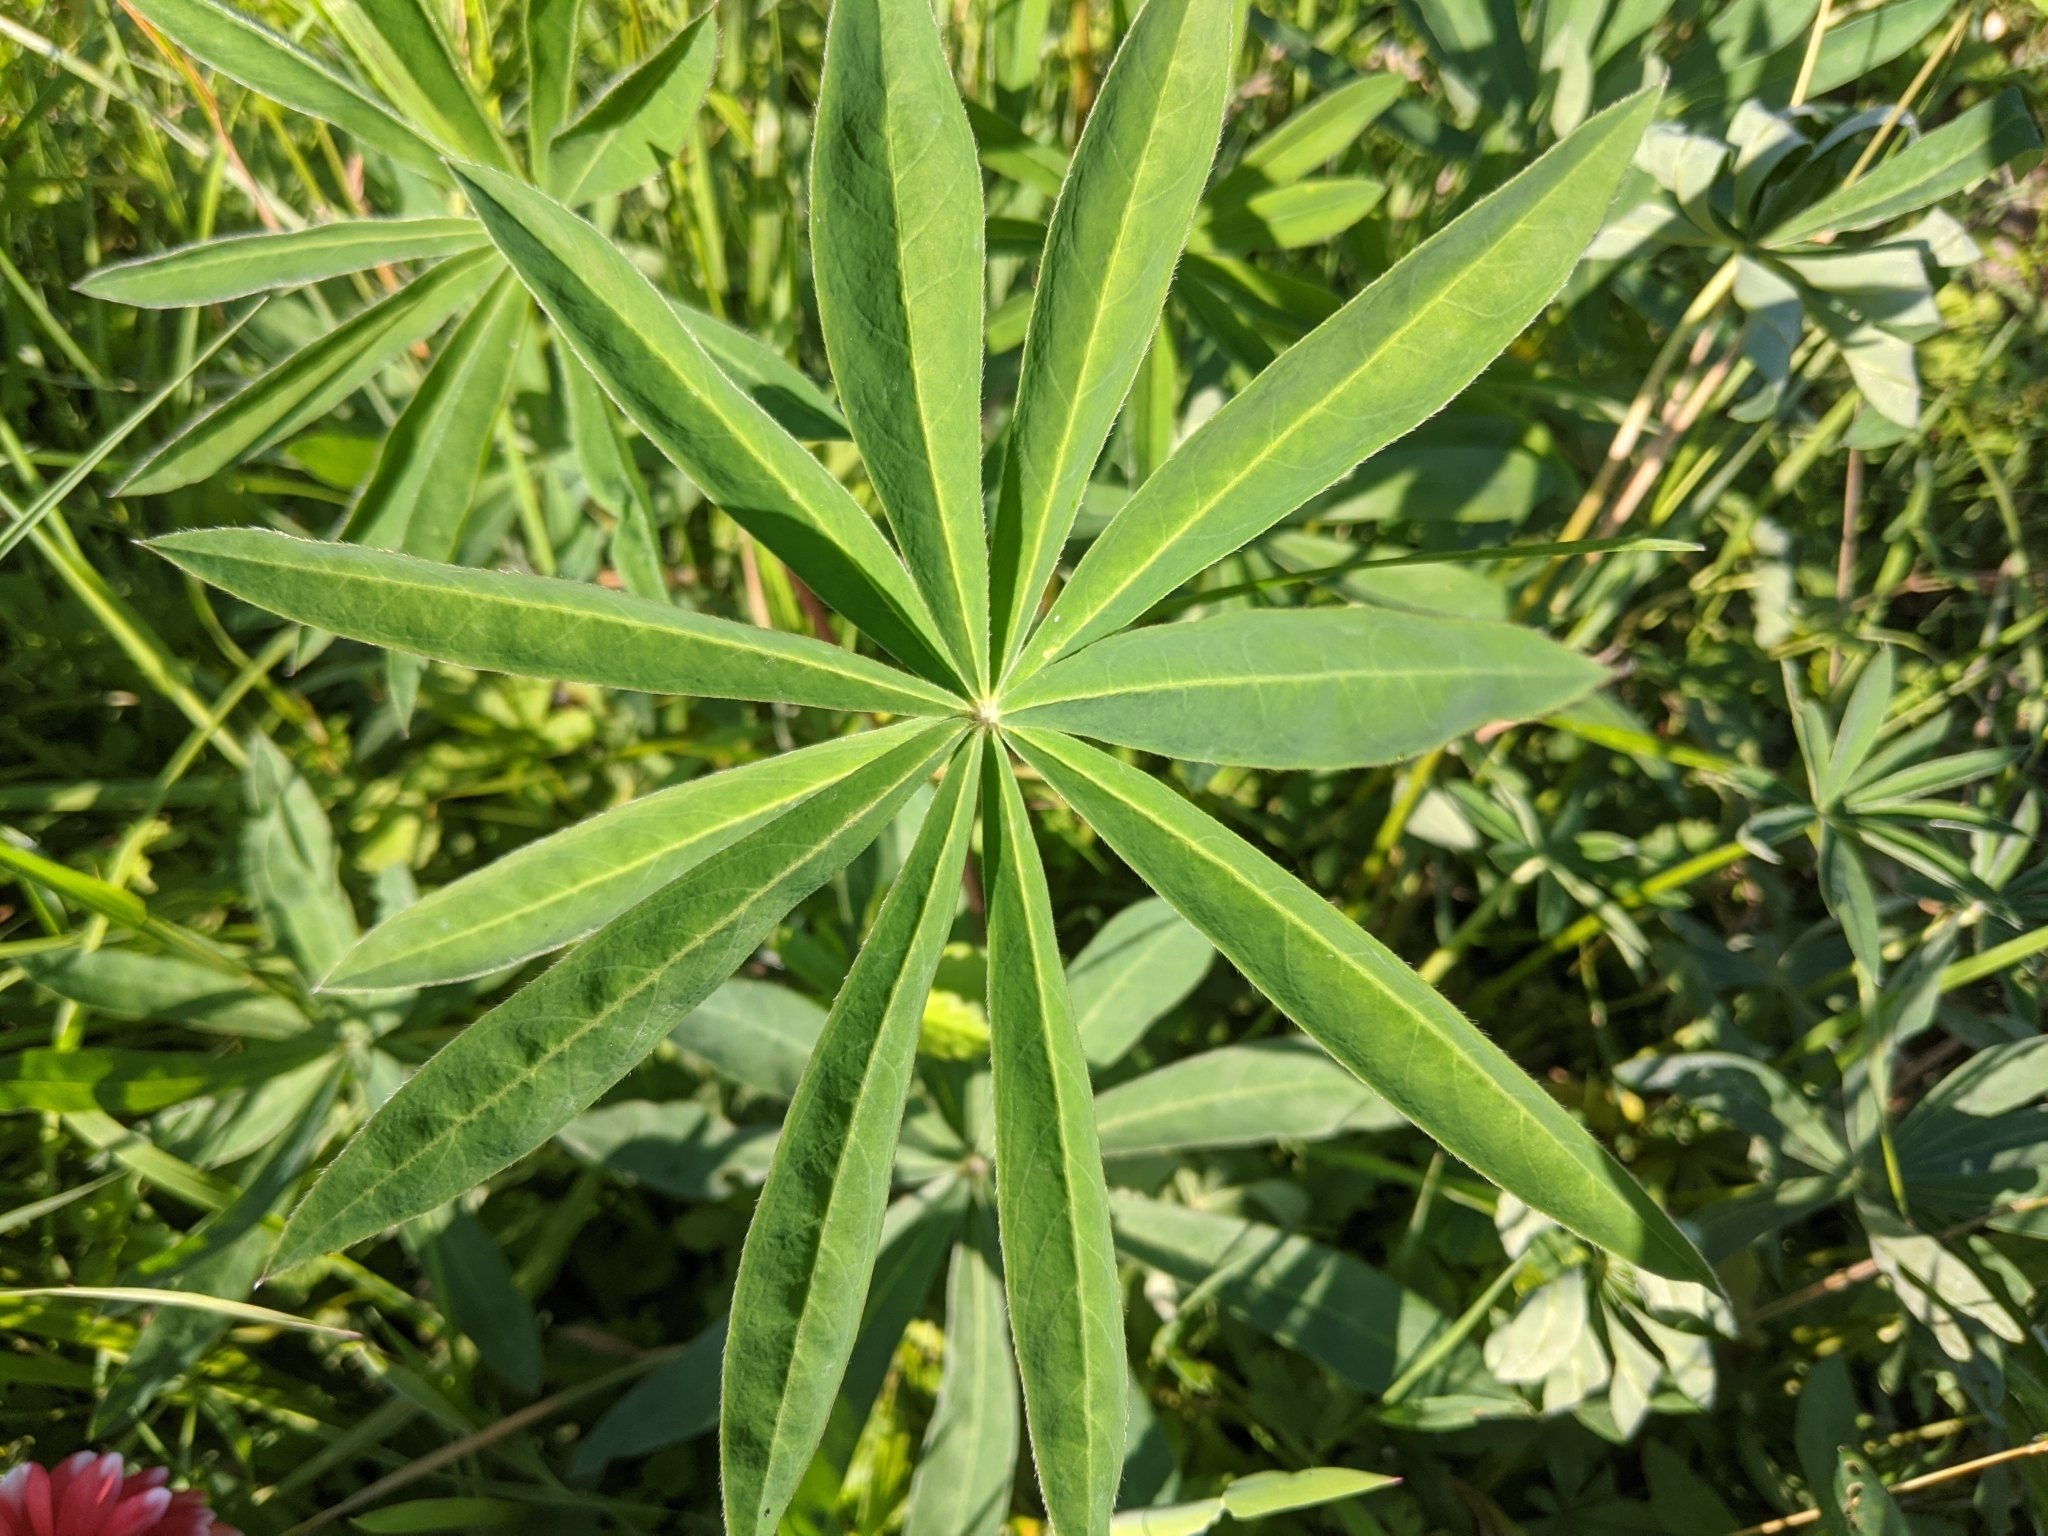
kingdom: Plantae
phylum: Tracheophyta
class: Magnoliopsida
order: Fabales
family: Fabaceae
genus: Lupinus
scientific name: Lupinus polyphyllus
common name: Garden lupin
